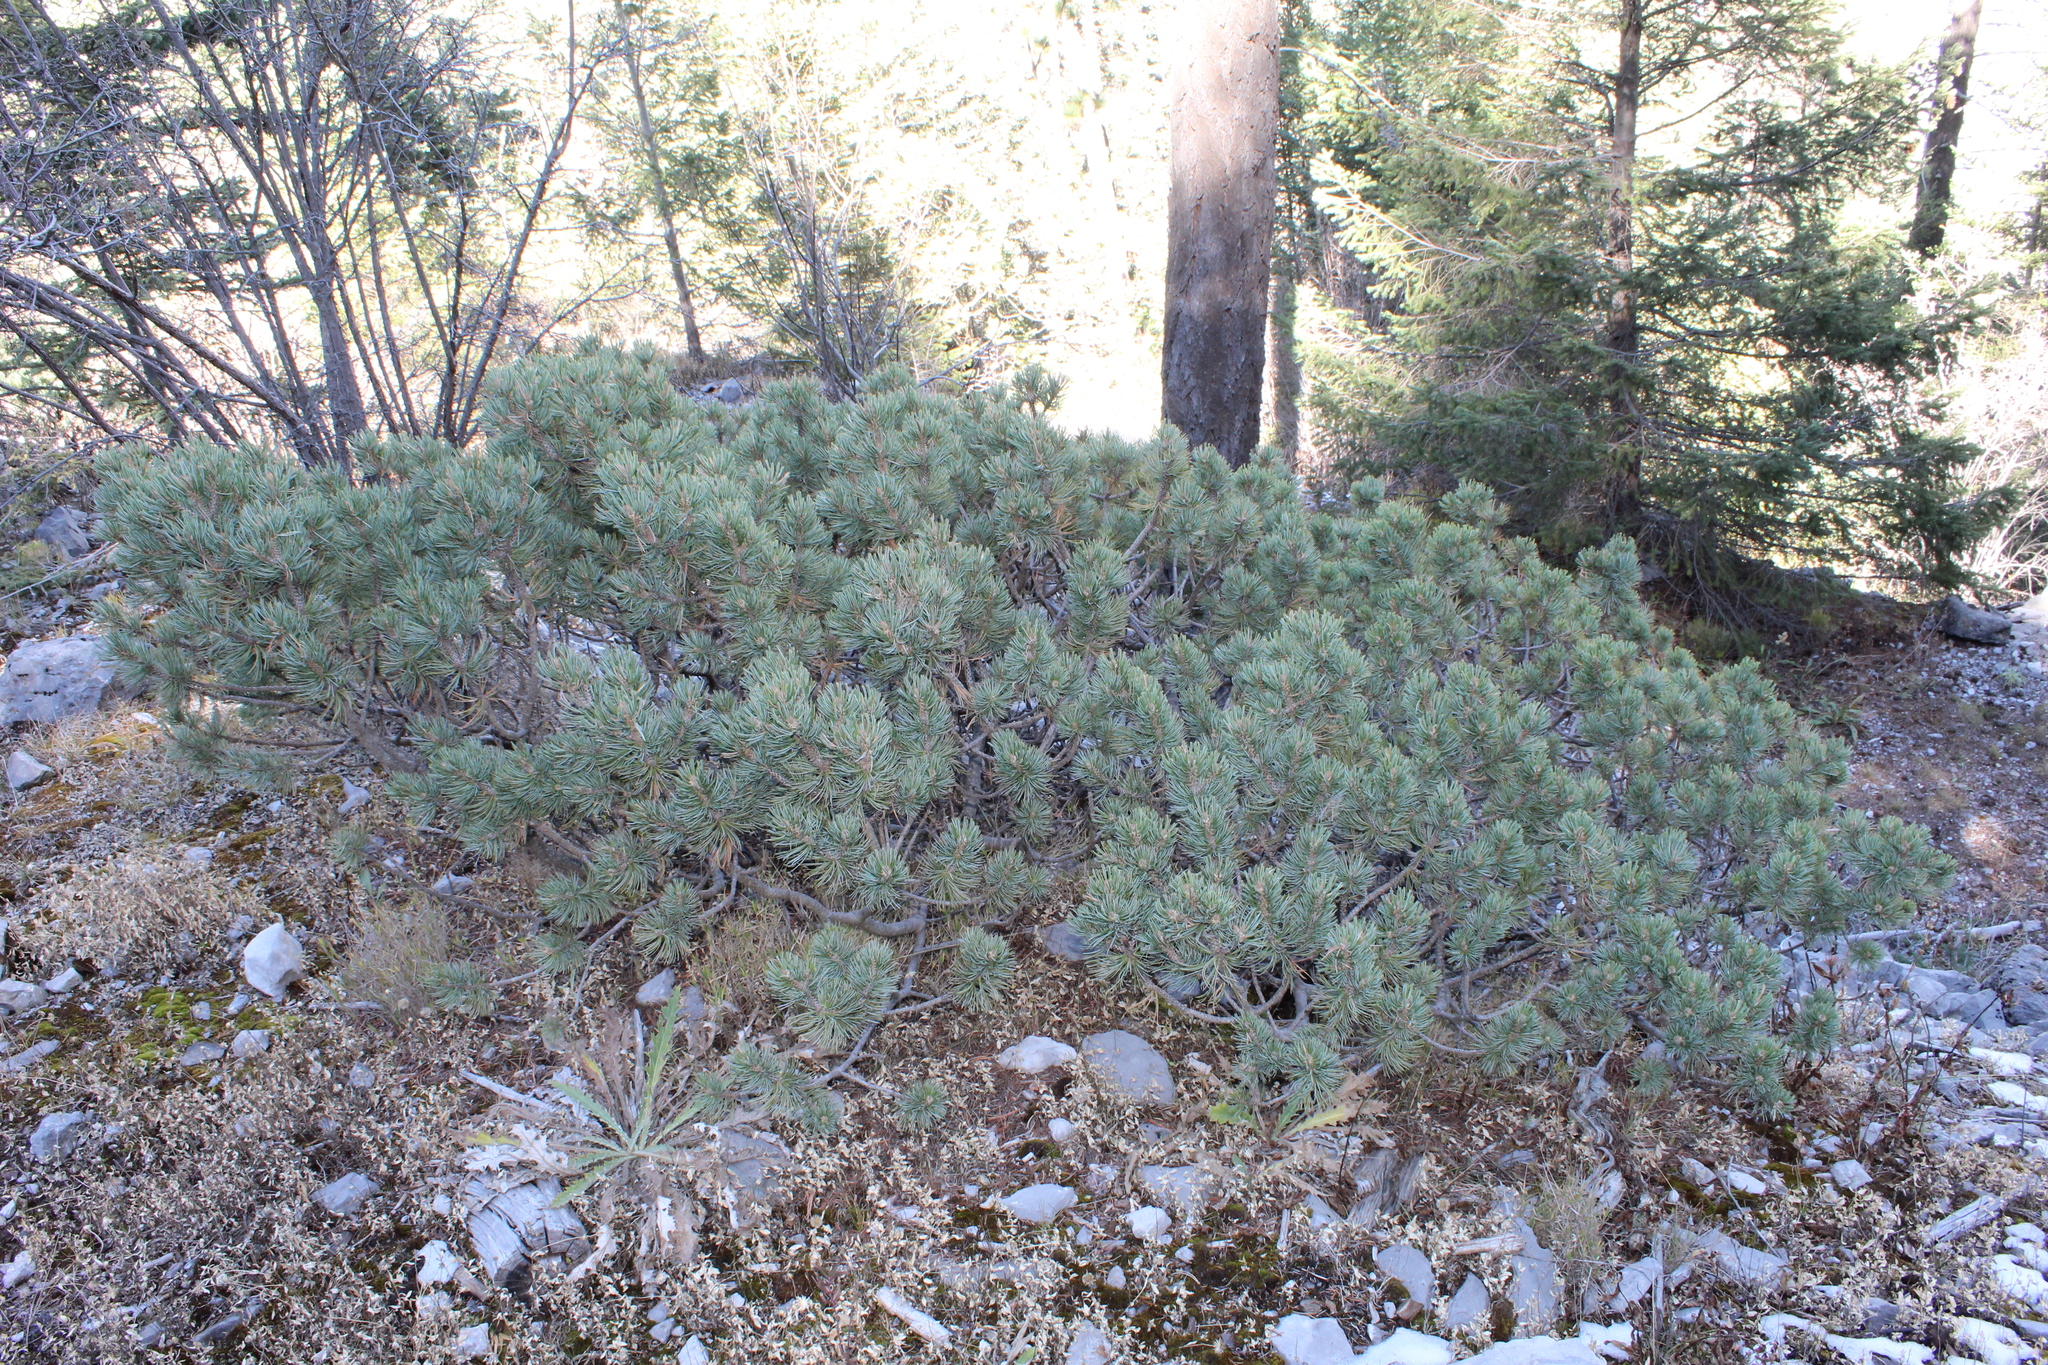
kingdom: Plantae
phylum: Tracheophyta
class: Pinopsida
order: Pinales
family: Pinaceae
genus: Pinus
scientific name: Pinus culminicola
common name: Potosi pinyon pine
